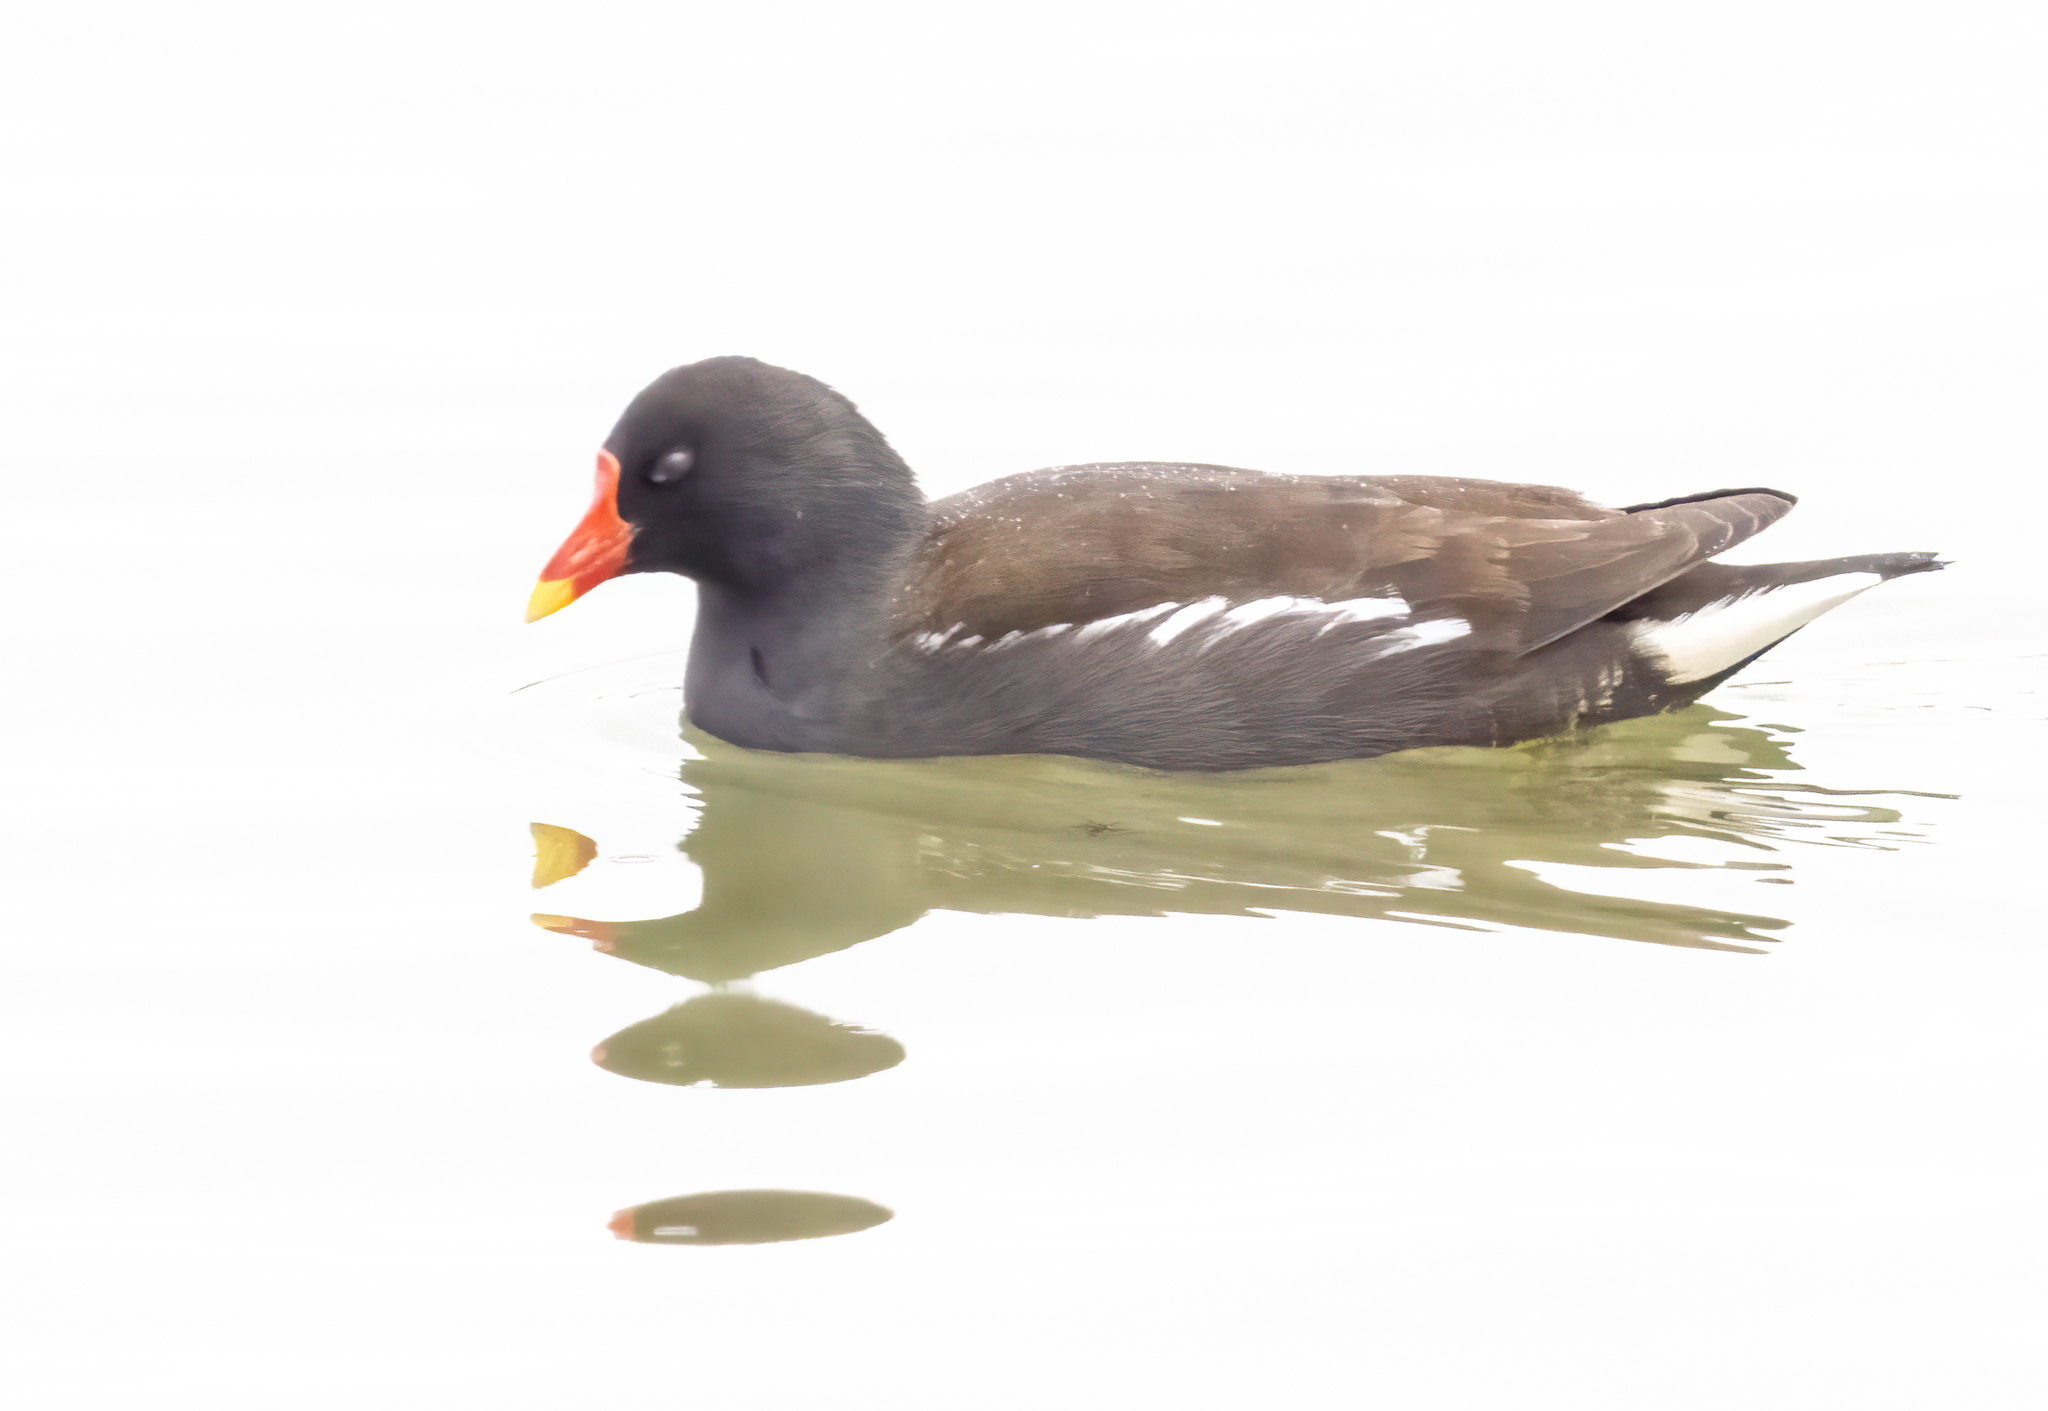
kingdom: Animalia
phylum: Chordata
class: Aves
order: Gruiformes
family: Rallidae
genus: Gallinula
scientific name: Gallinula chloropus
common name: Common moorhen
